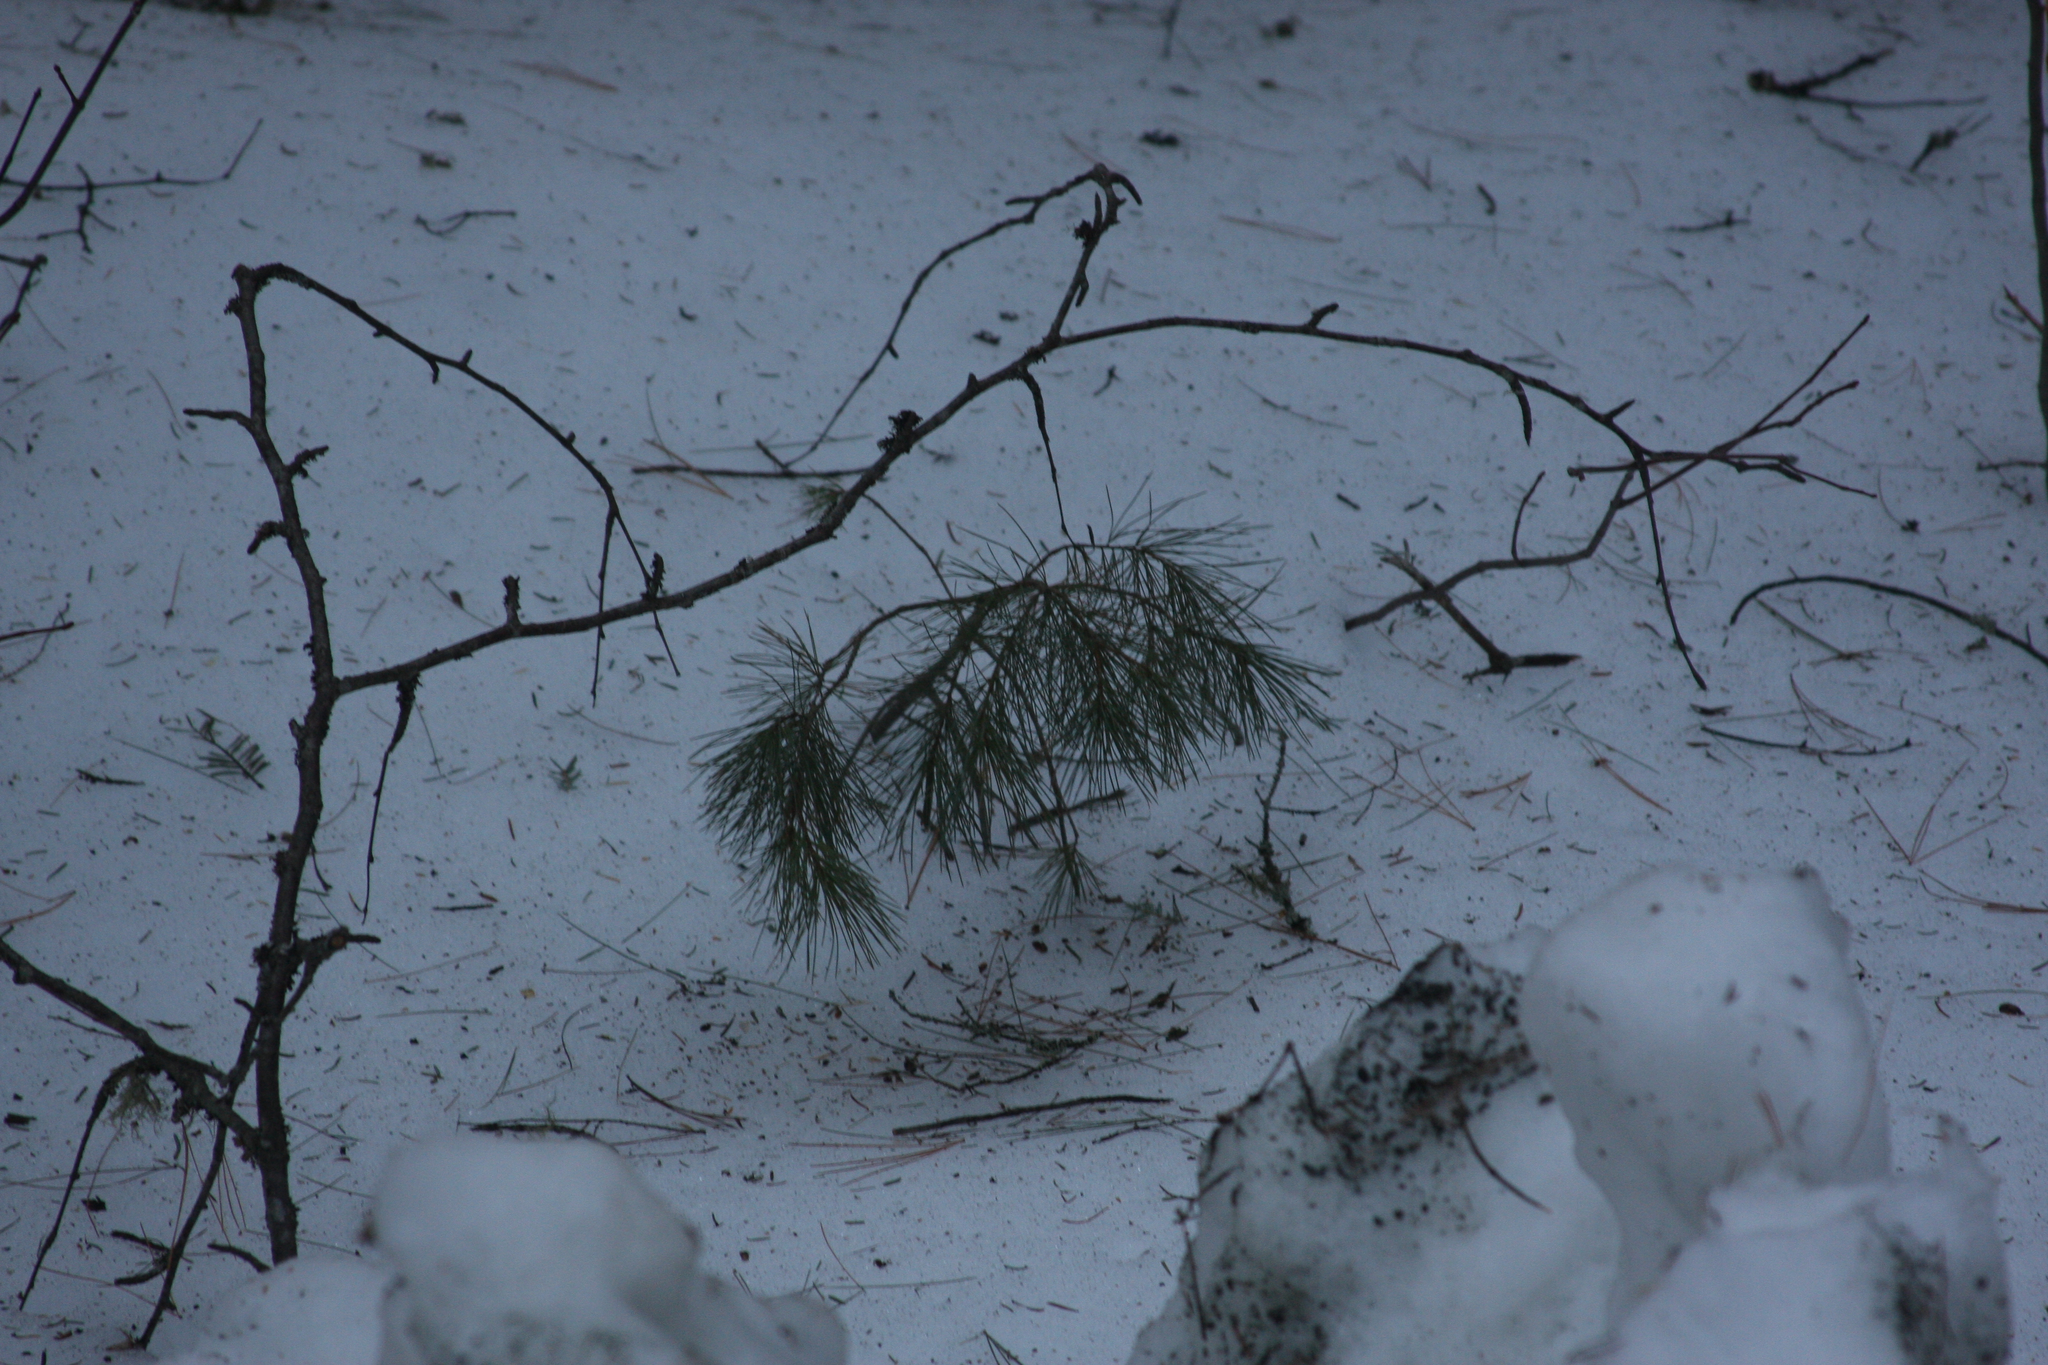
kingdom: Plantae
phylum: Tracheophyta
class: Pinopsida
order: Pinales
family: Pinaceae
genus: Pinus
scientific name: Pinus strobus
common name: Weymouth pine
